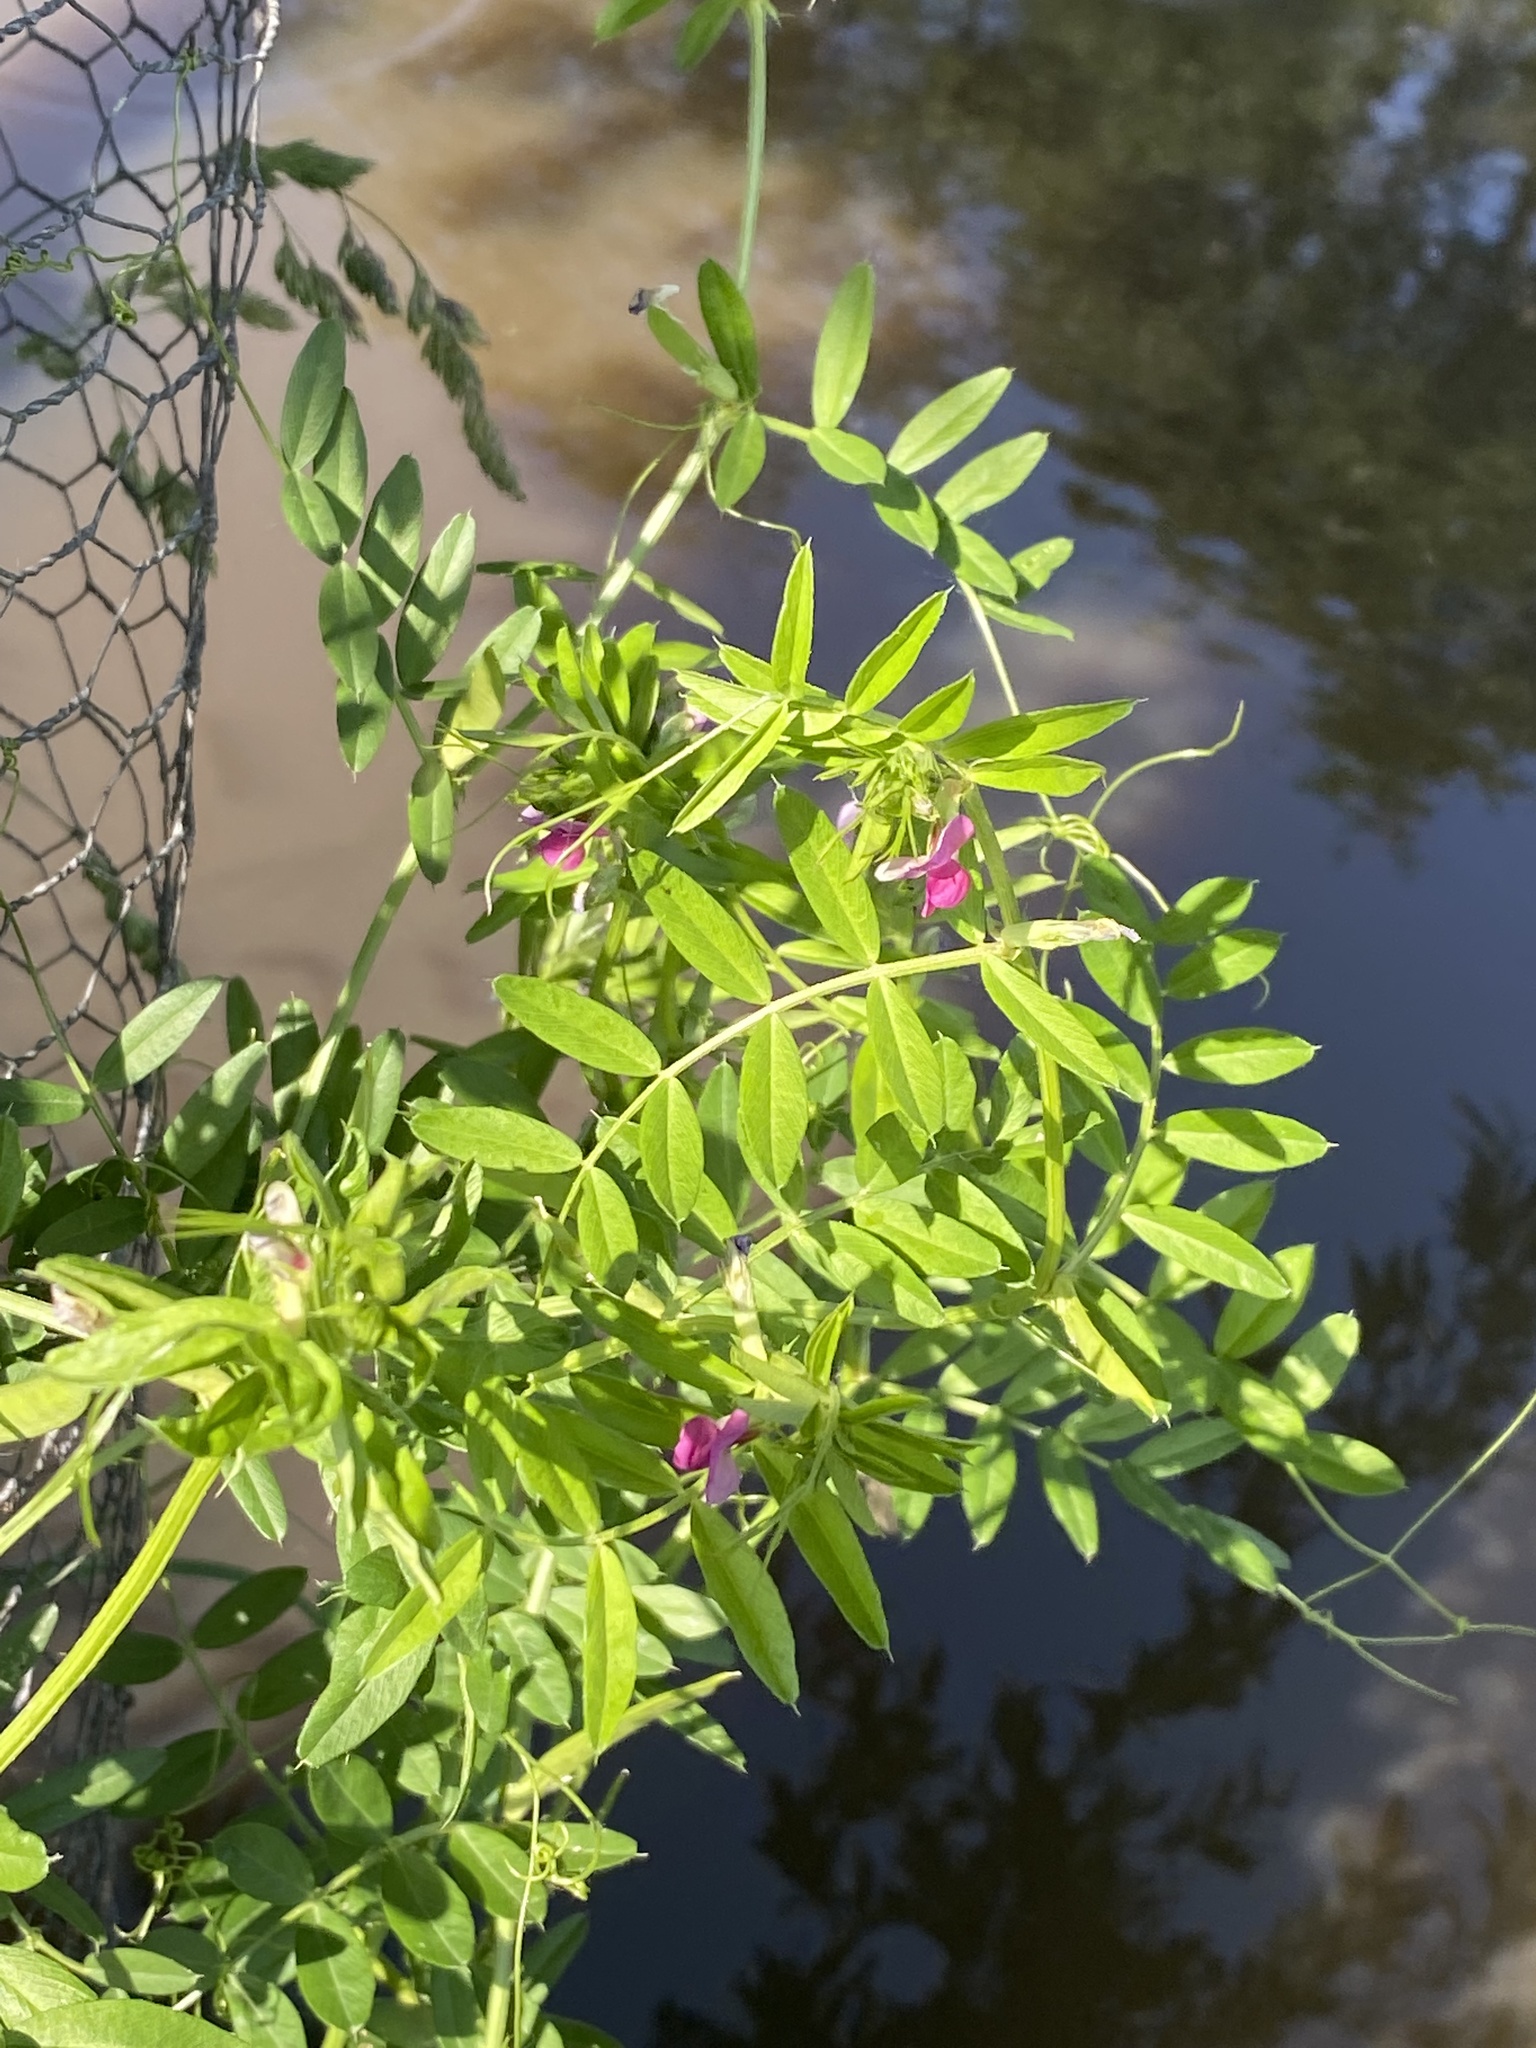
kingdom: Plantae
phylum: Tracheophyta
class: Magnoliopsida
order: Fabales
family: Fabaceae
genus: Vicia
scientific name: Vicia sativa
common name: Garden vetch
